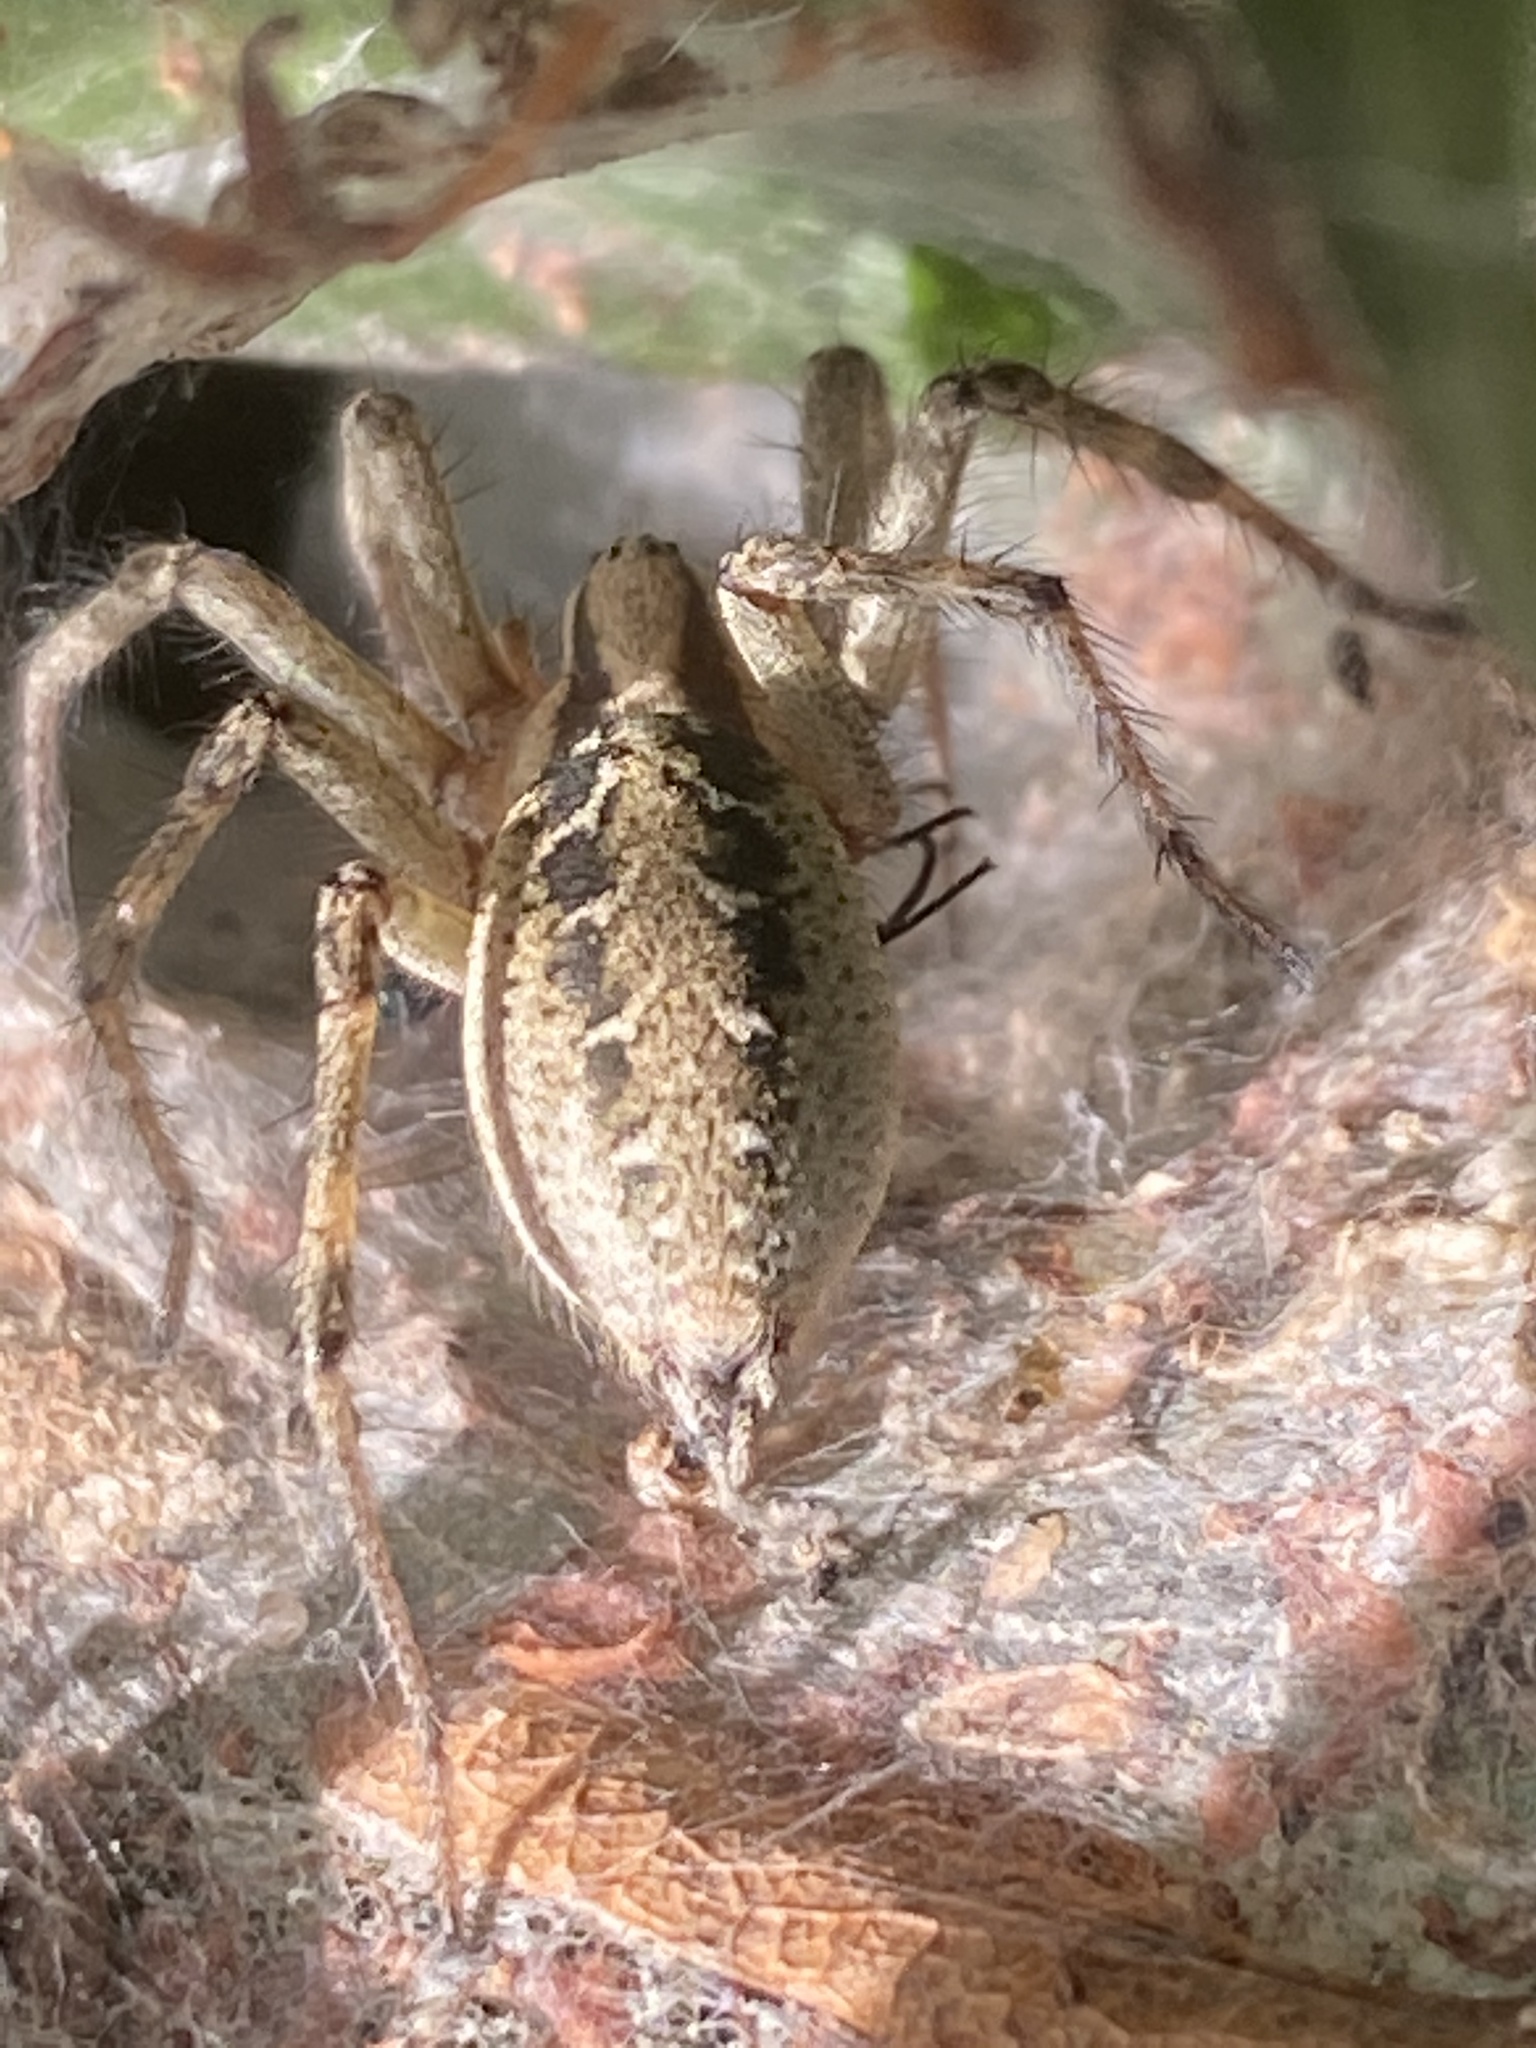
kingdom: Animalia
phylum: Arthropoda
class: Arachnida
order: Araneae
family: Agelenidae
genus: Agelena
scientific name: Agelena labyrinthica
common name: Labyrinth spider
